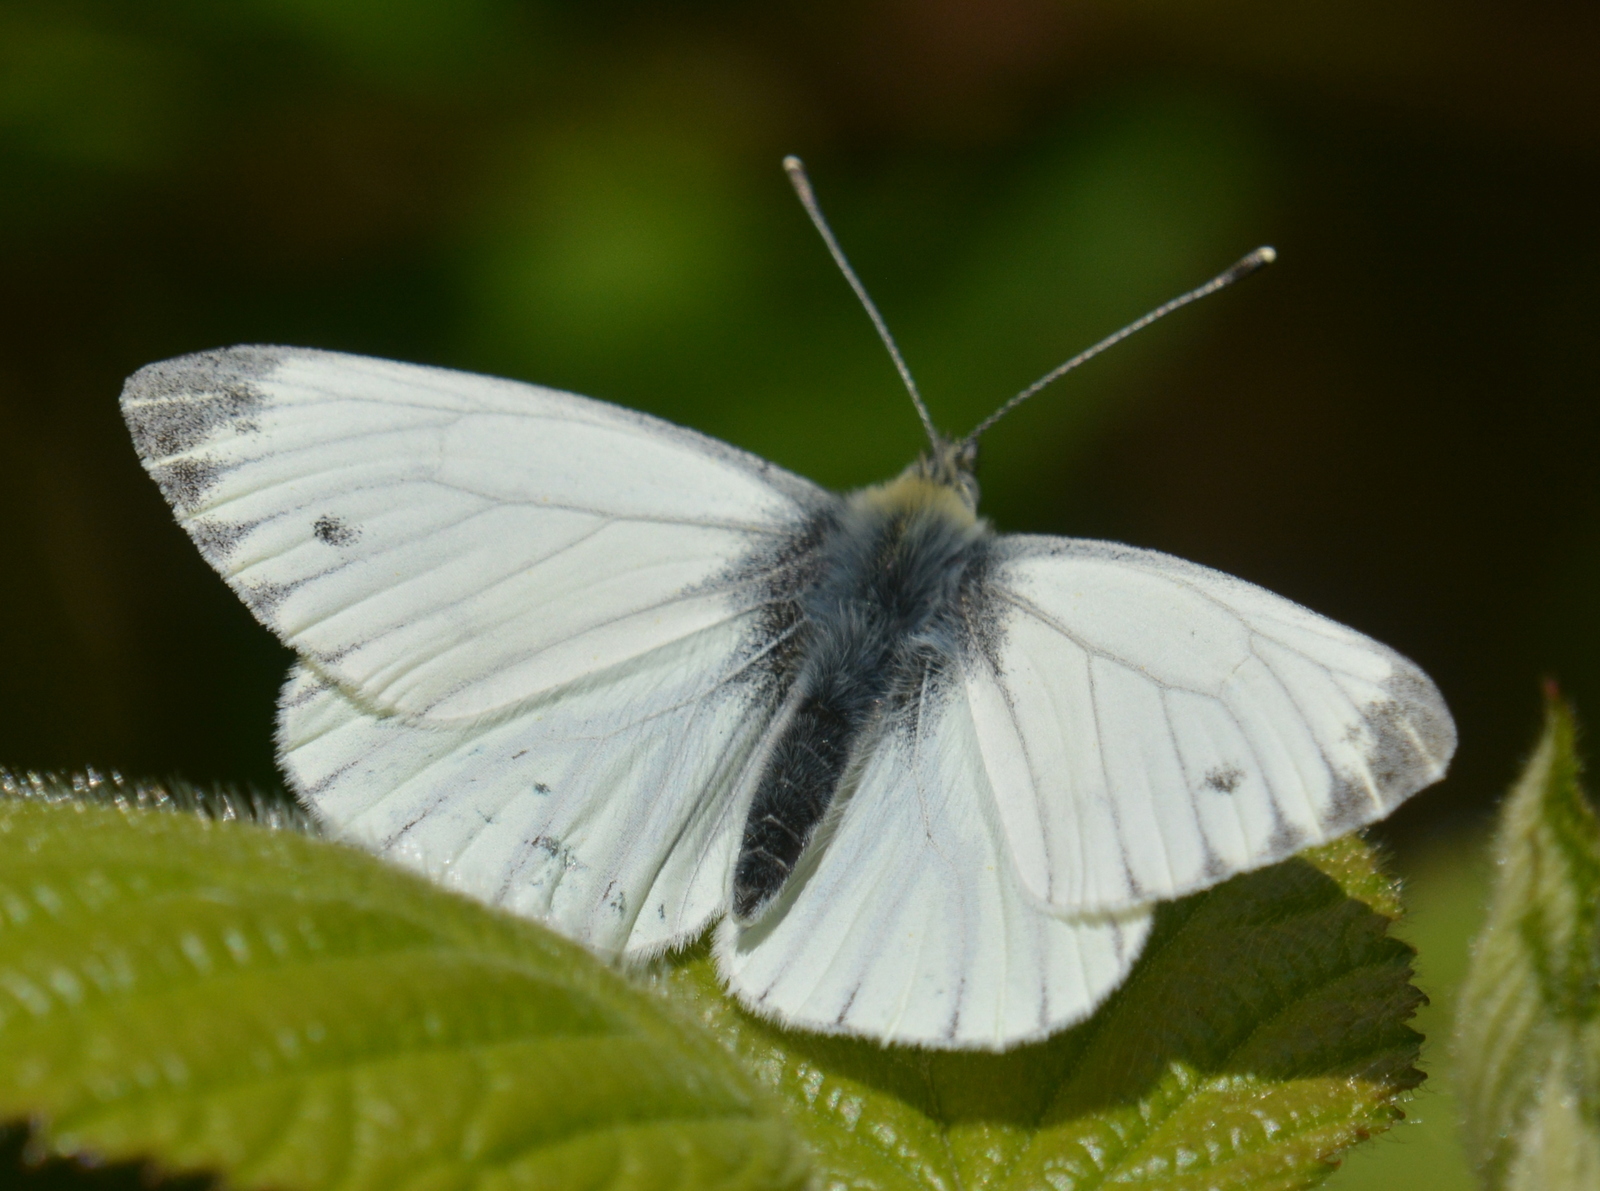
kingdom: Animalia
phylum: Arthropoda
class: Insecta
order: Lepidoptera
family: Pieridae
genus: Pieris
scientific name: Pieris napi
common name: Green-veined white
